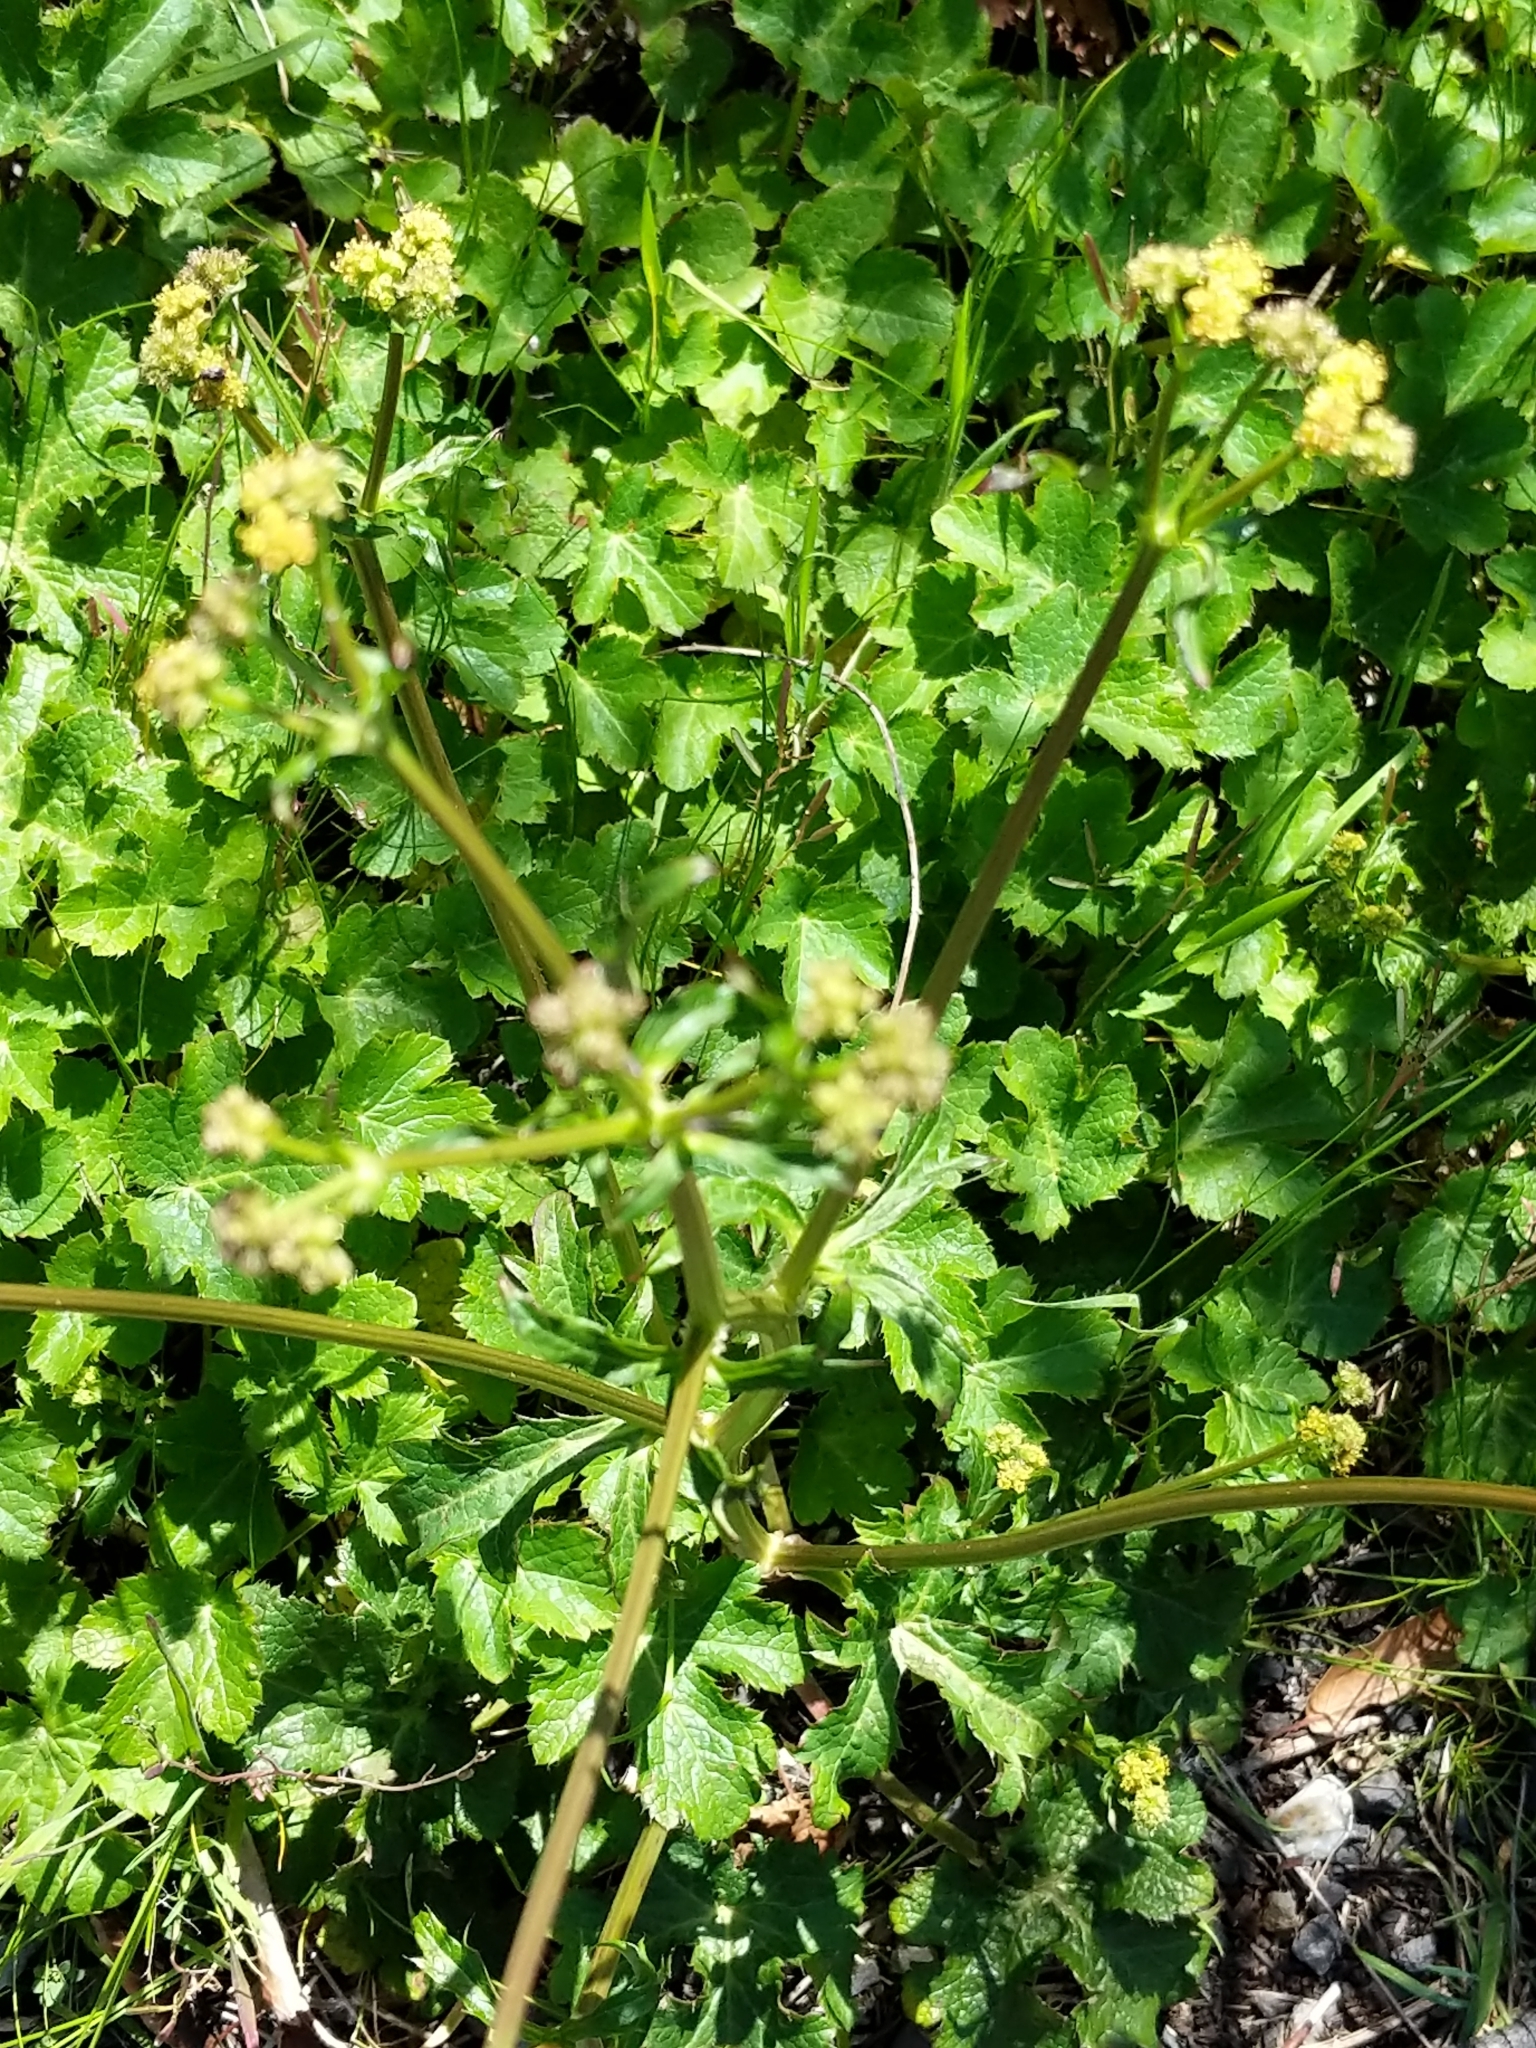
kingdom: Plantae
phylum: Tracheophyta
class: Magnoliopsida
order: Apiales
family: Apiaceae
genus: Sanicula
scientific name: Sanicula crassicaulis
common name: Western snakeroot
